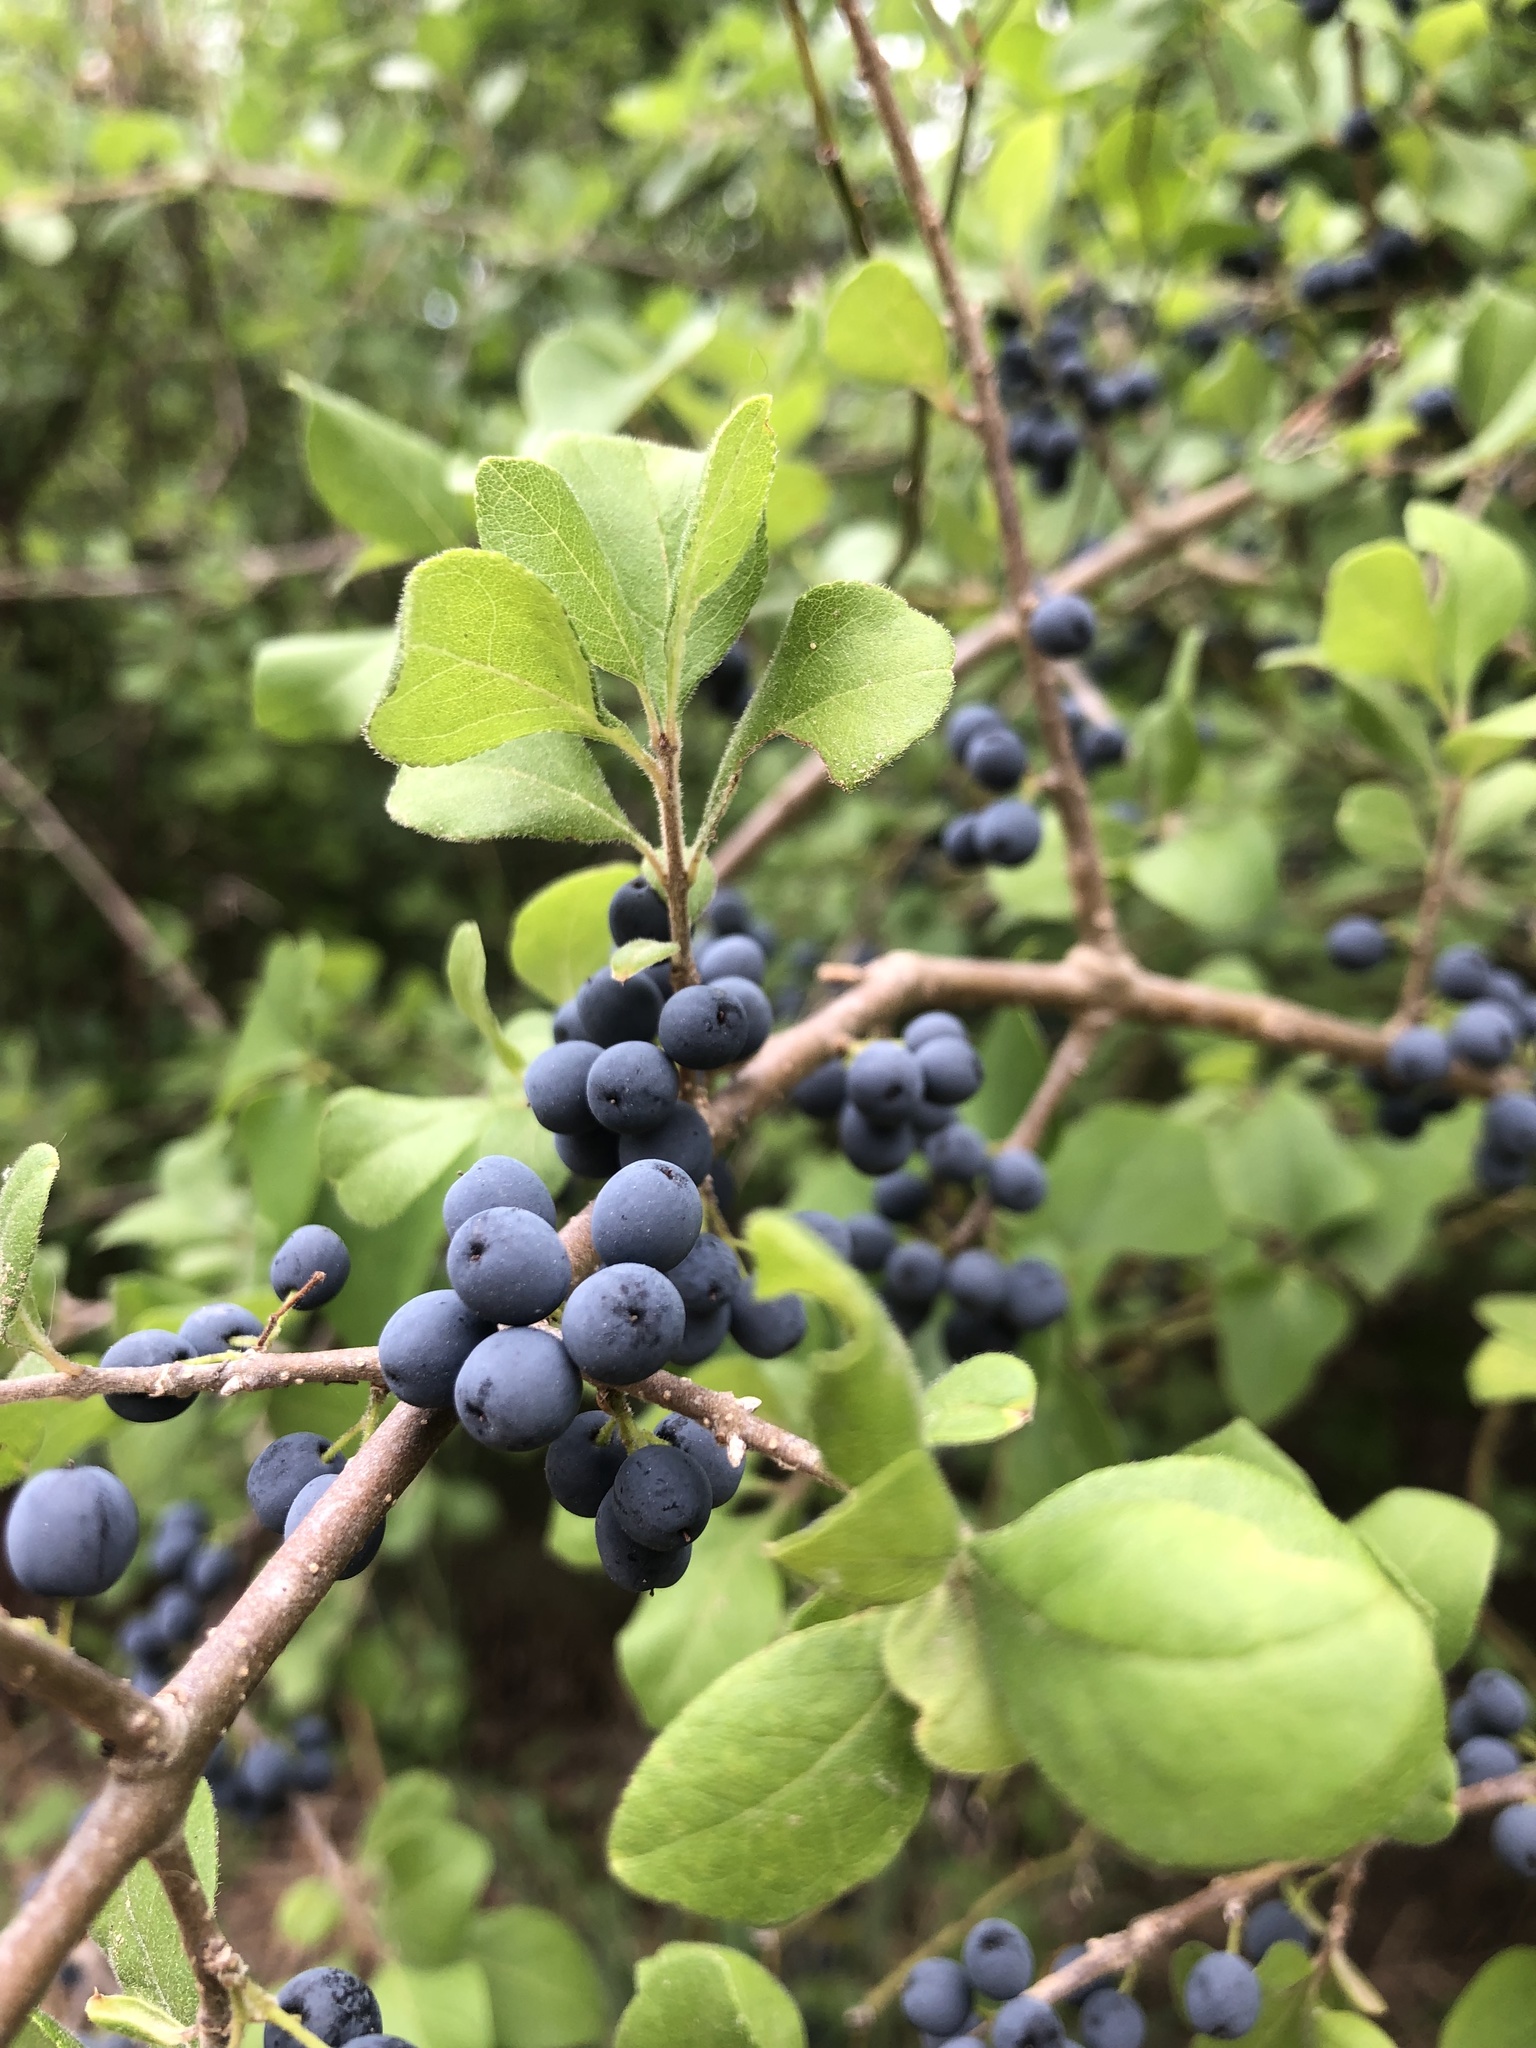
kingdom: Plantae
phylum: Tracheophyta
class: Magnoliopsida
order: Lamiales
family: Oleaceae
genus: Forestiera
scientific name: Forestiera pubescens
